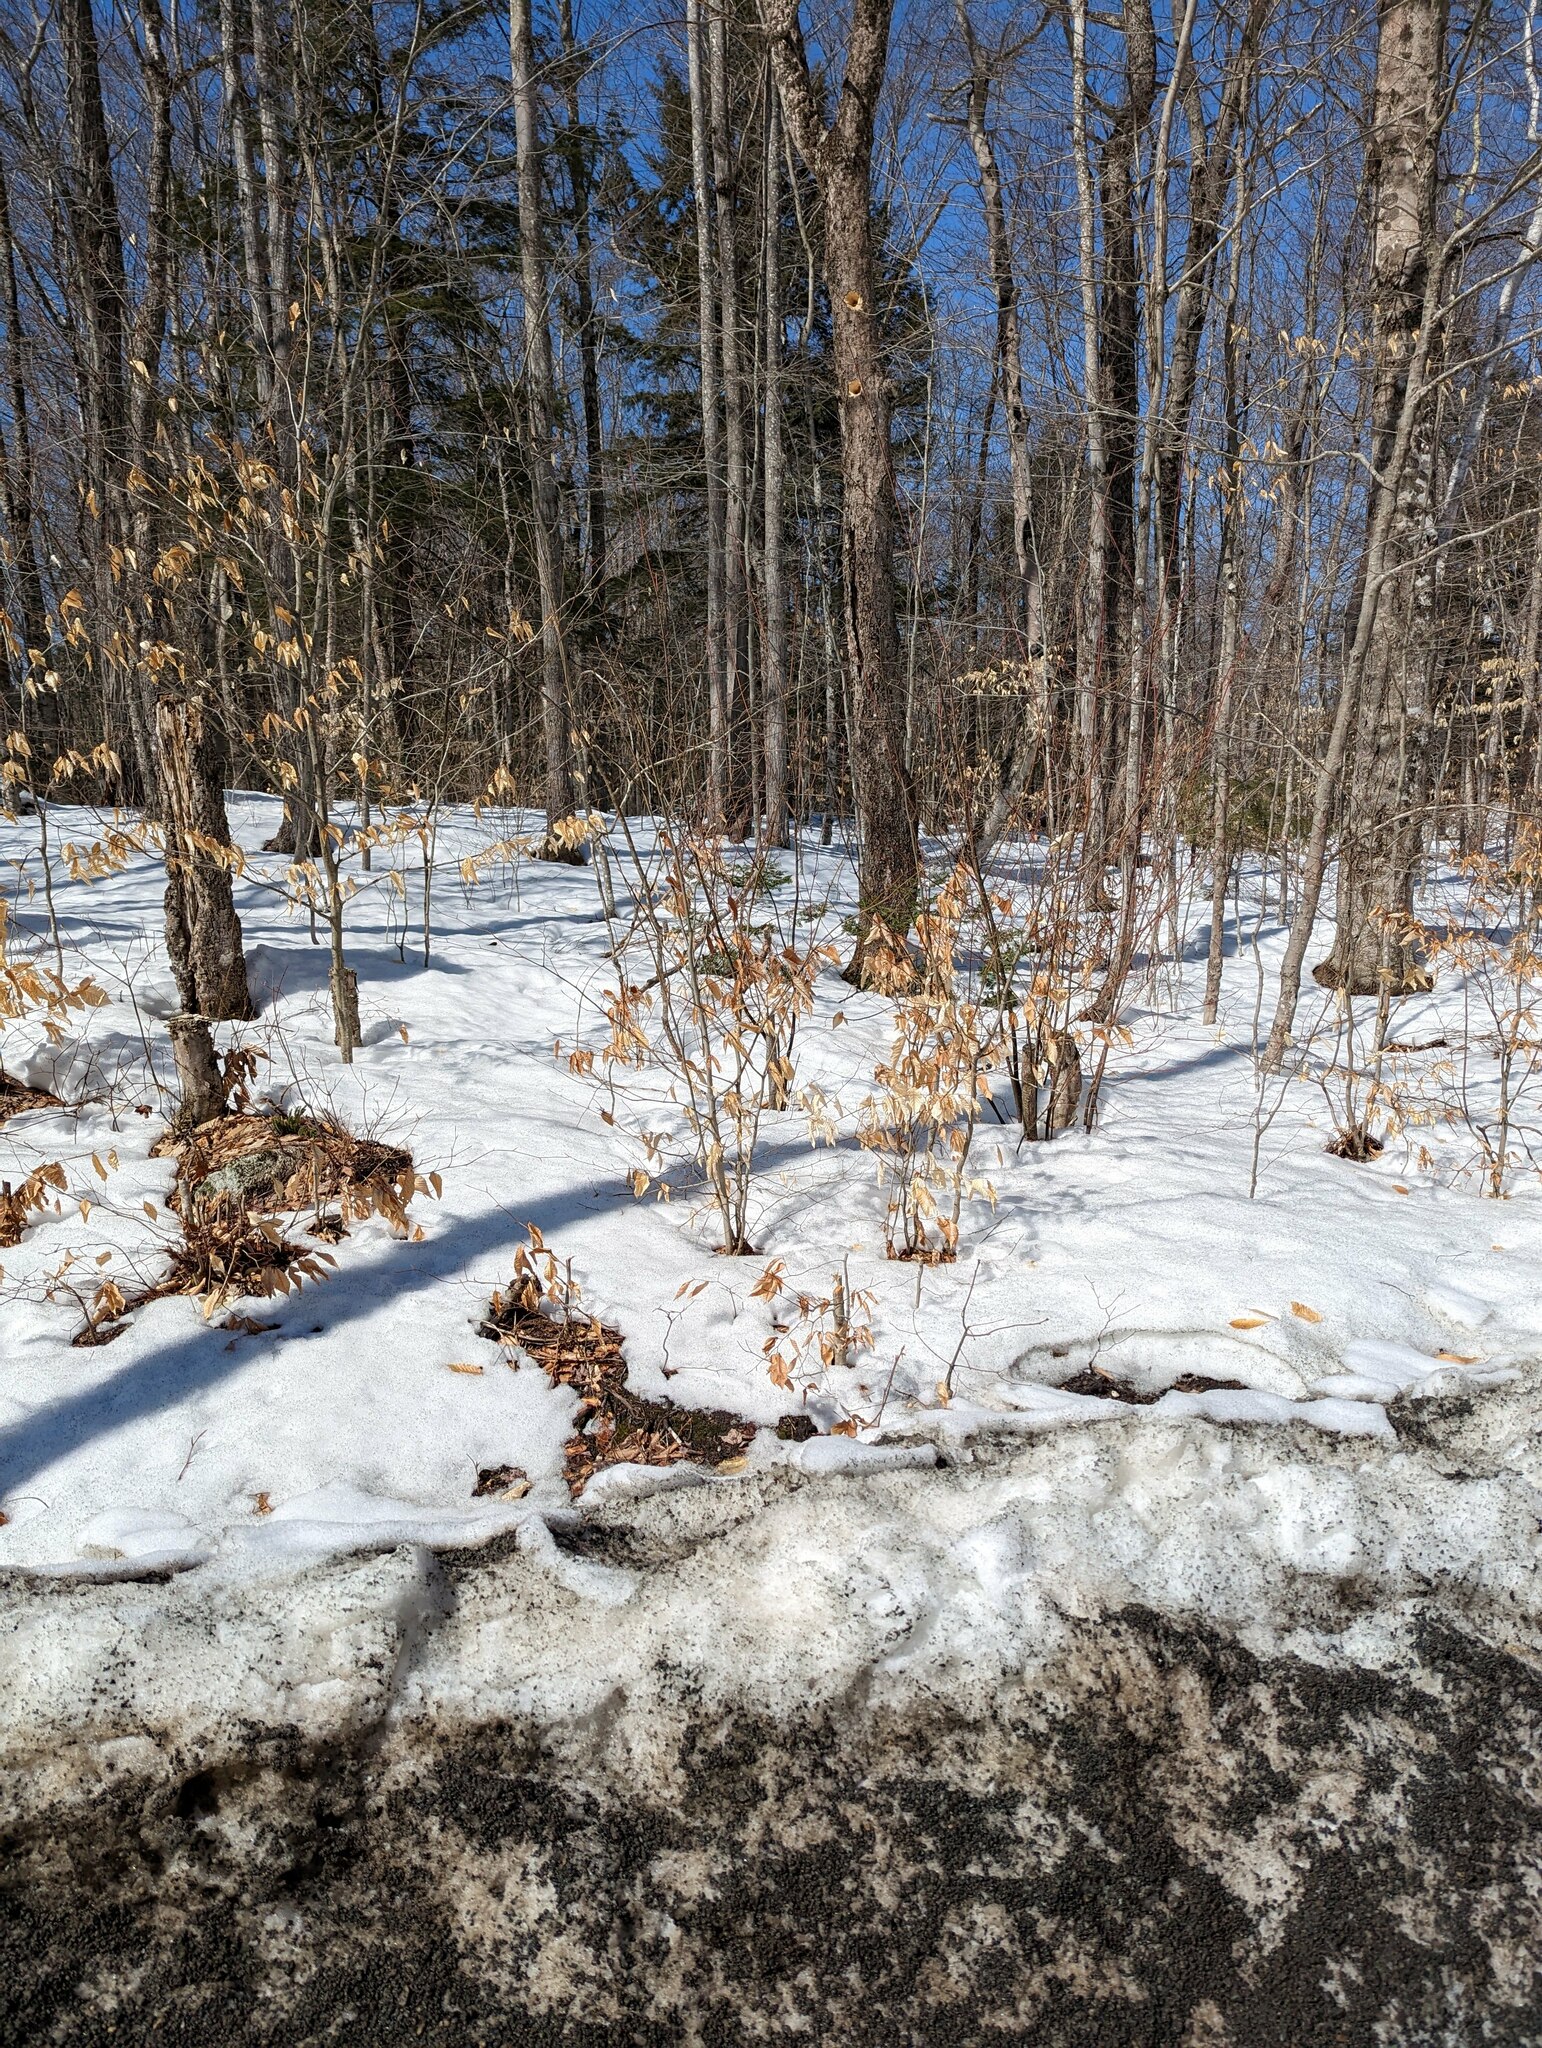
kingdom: Plantae
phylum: Tracheophyta
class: Magnoliopsida
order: Fagales
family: Fagaceae
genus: Fagus
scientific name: Fagus grandifolia
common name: American beech
